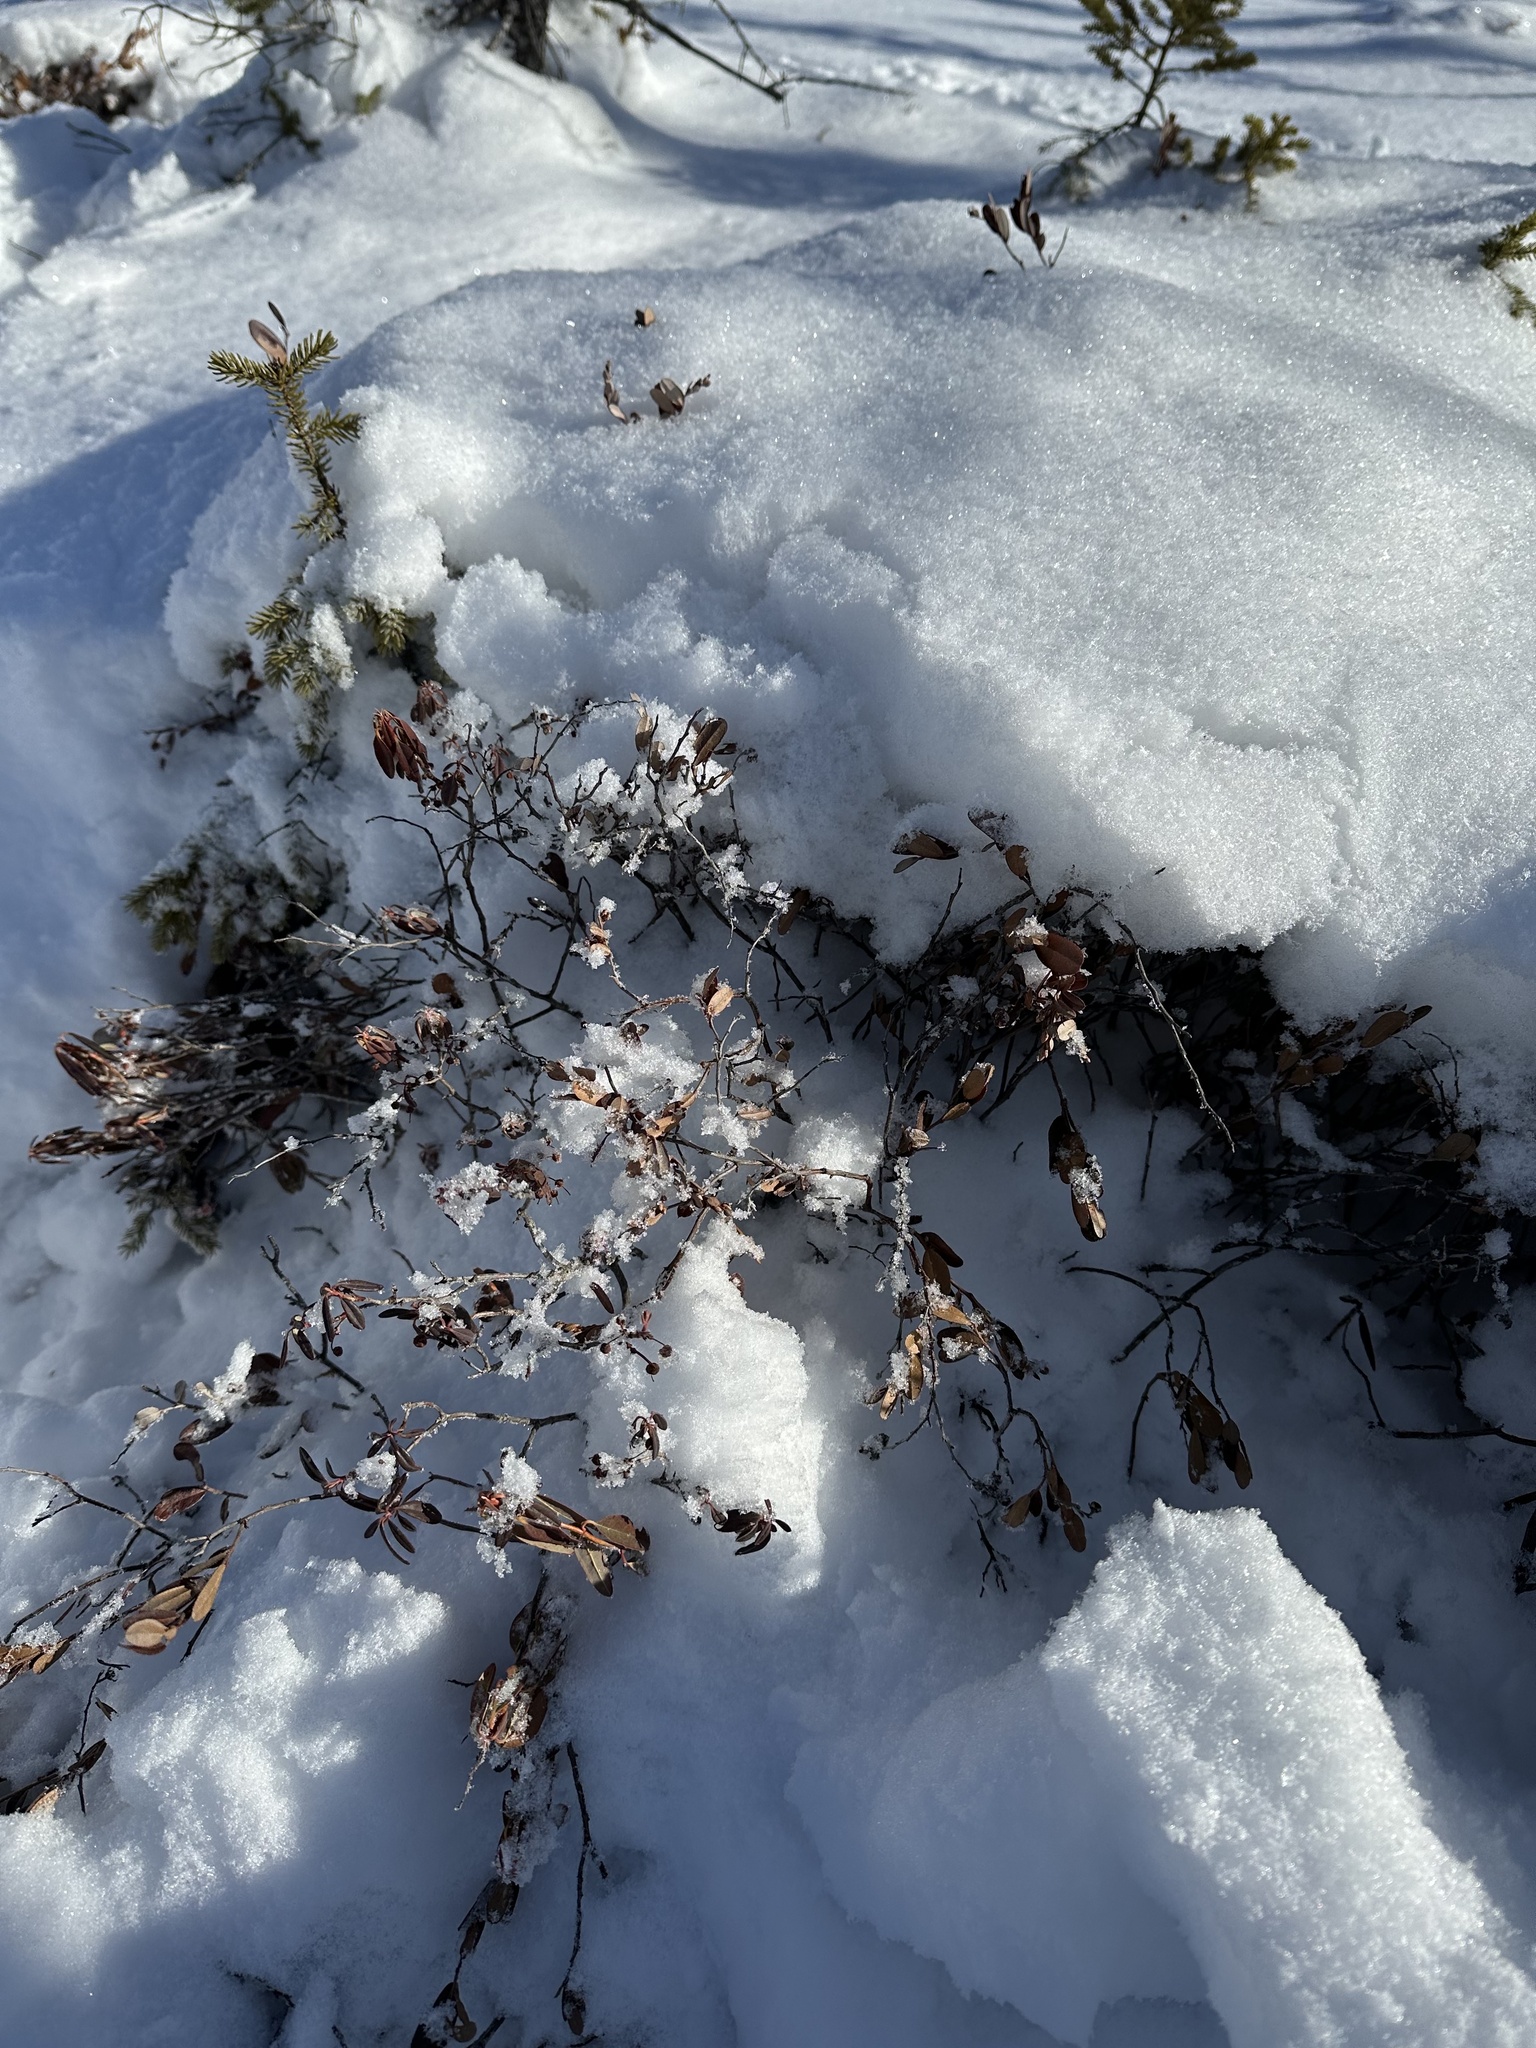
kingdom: Plantae
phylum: Tracheophyta
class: Magnoliopsida
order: Ericales
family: Ericaceae
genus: Chamaedaphne
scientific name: Chamaedaphne calyculata
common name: Leatherleaf
